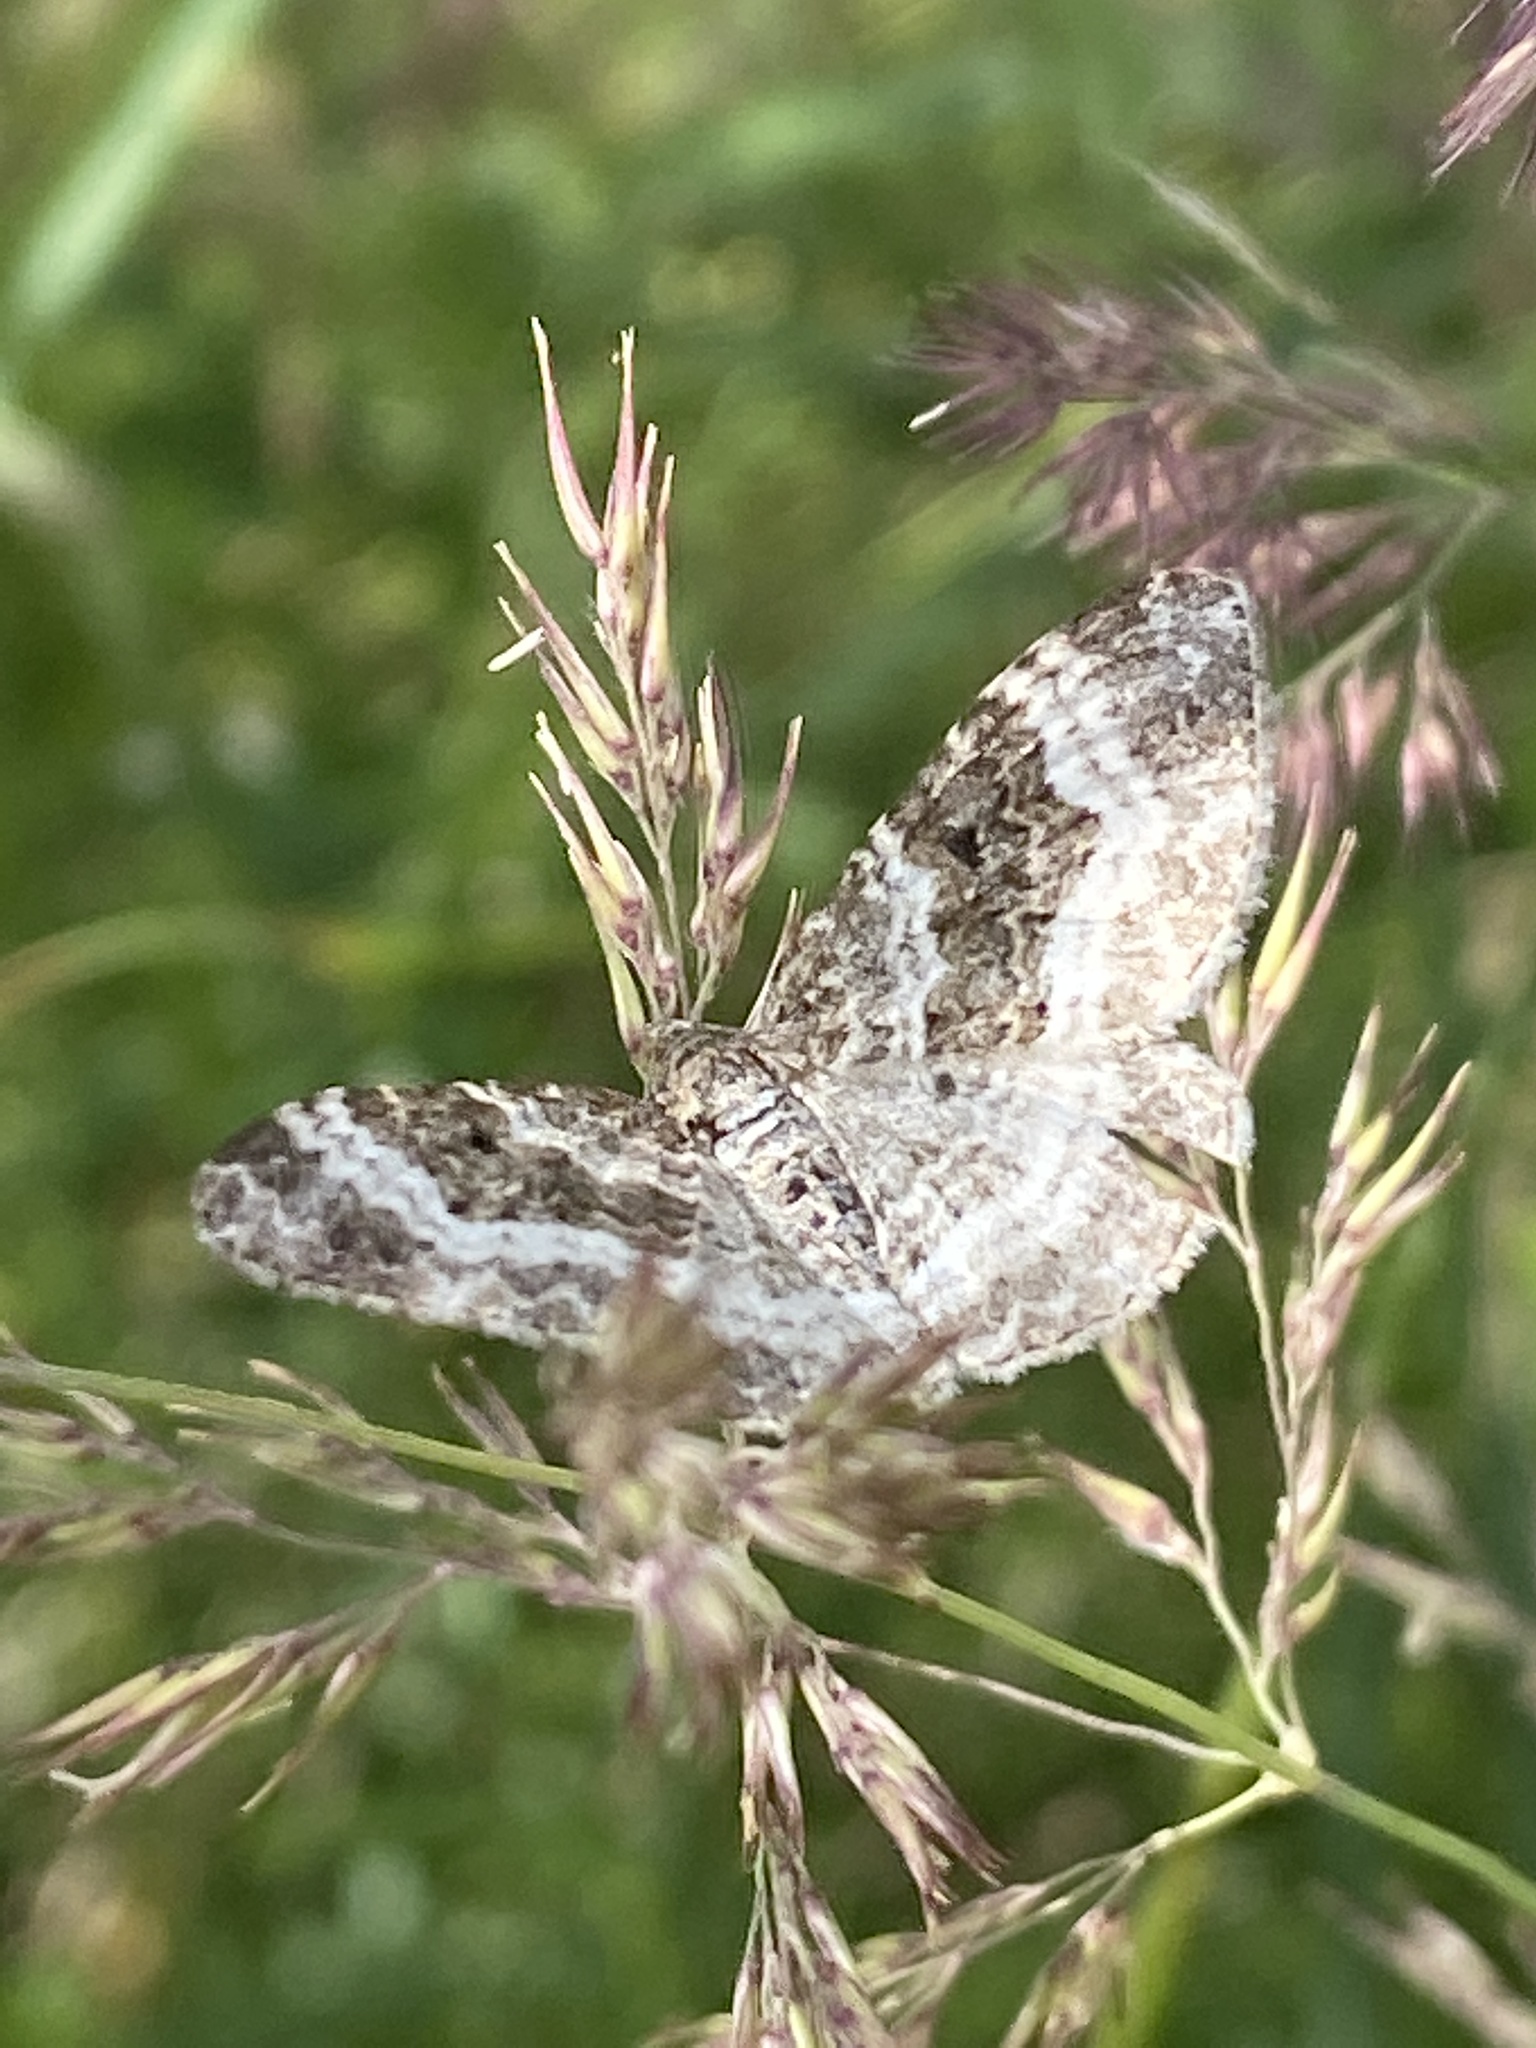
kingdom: Animalia
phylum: Arthropoda
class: Insecta
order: Lepidoptera
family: Geometridae
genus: Epirrhoe
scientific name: Epirrhoe alternata
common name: Common carpet
